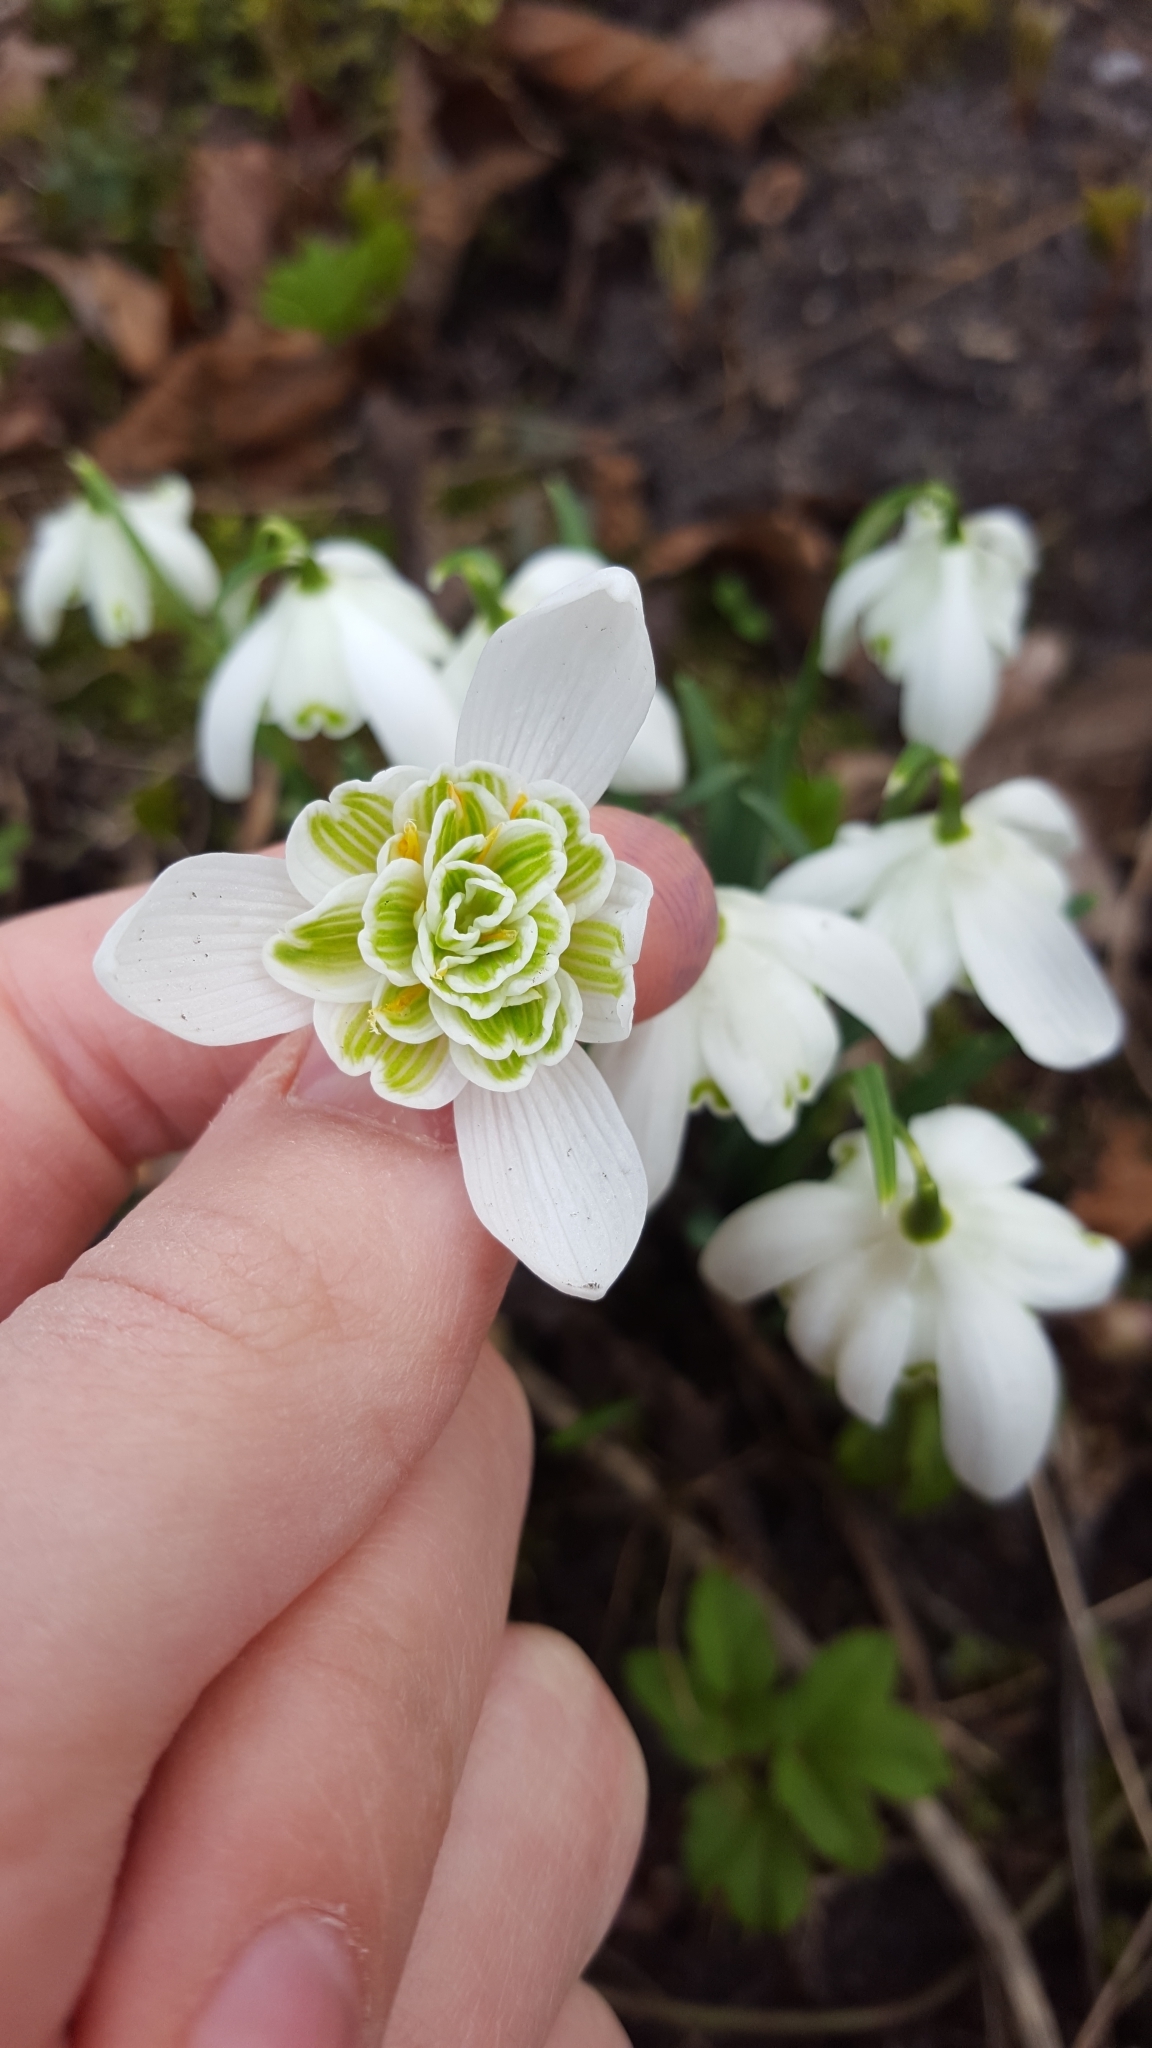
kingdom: Plantae
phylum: Tracheophyta
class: Liliopsida
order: Asparagales
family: Amaryllidaceae
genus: Galanthus
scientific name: Galanthus nivalis
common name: Snowdrop
